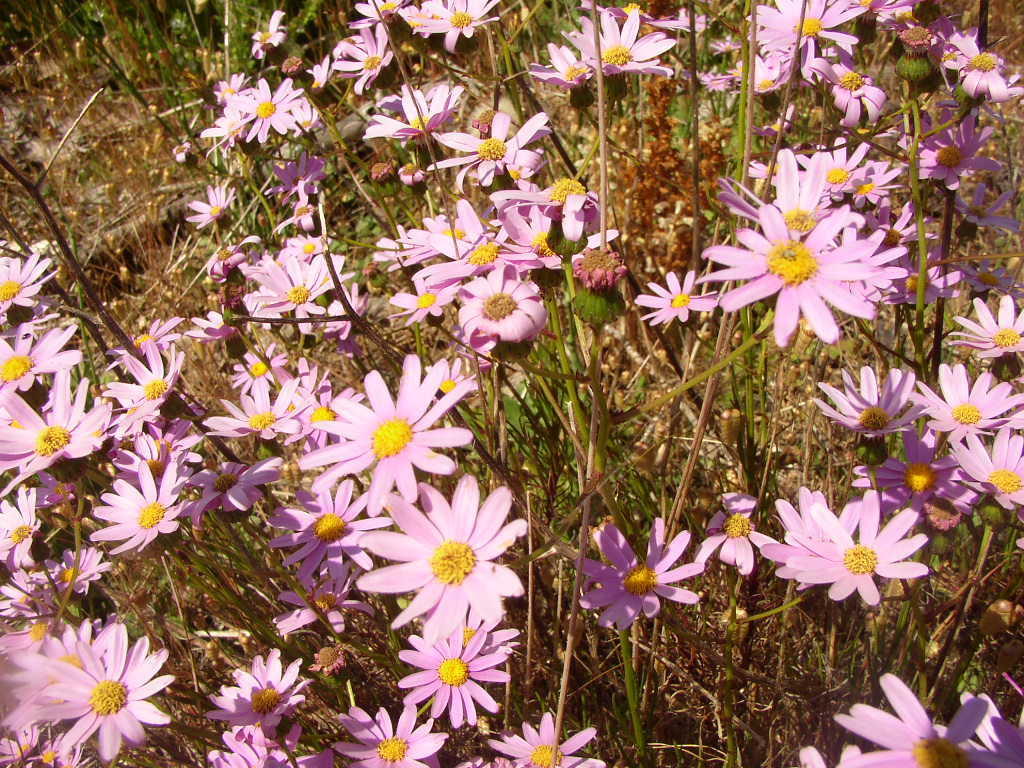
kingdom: Plantae
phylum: Tracheophyta
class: Magnoliopsida
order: Asterales
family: Asteraceae
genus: Senecio
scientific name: Senecio umbellatus
